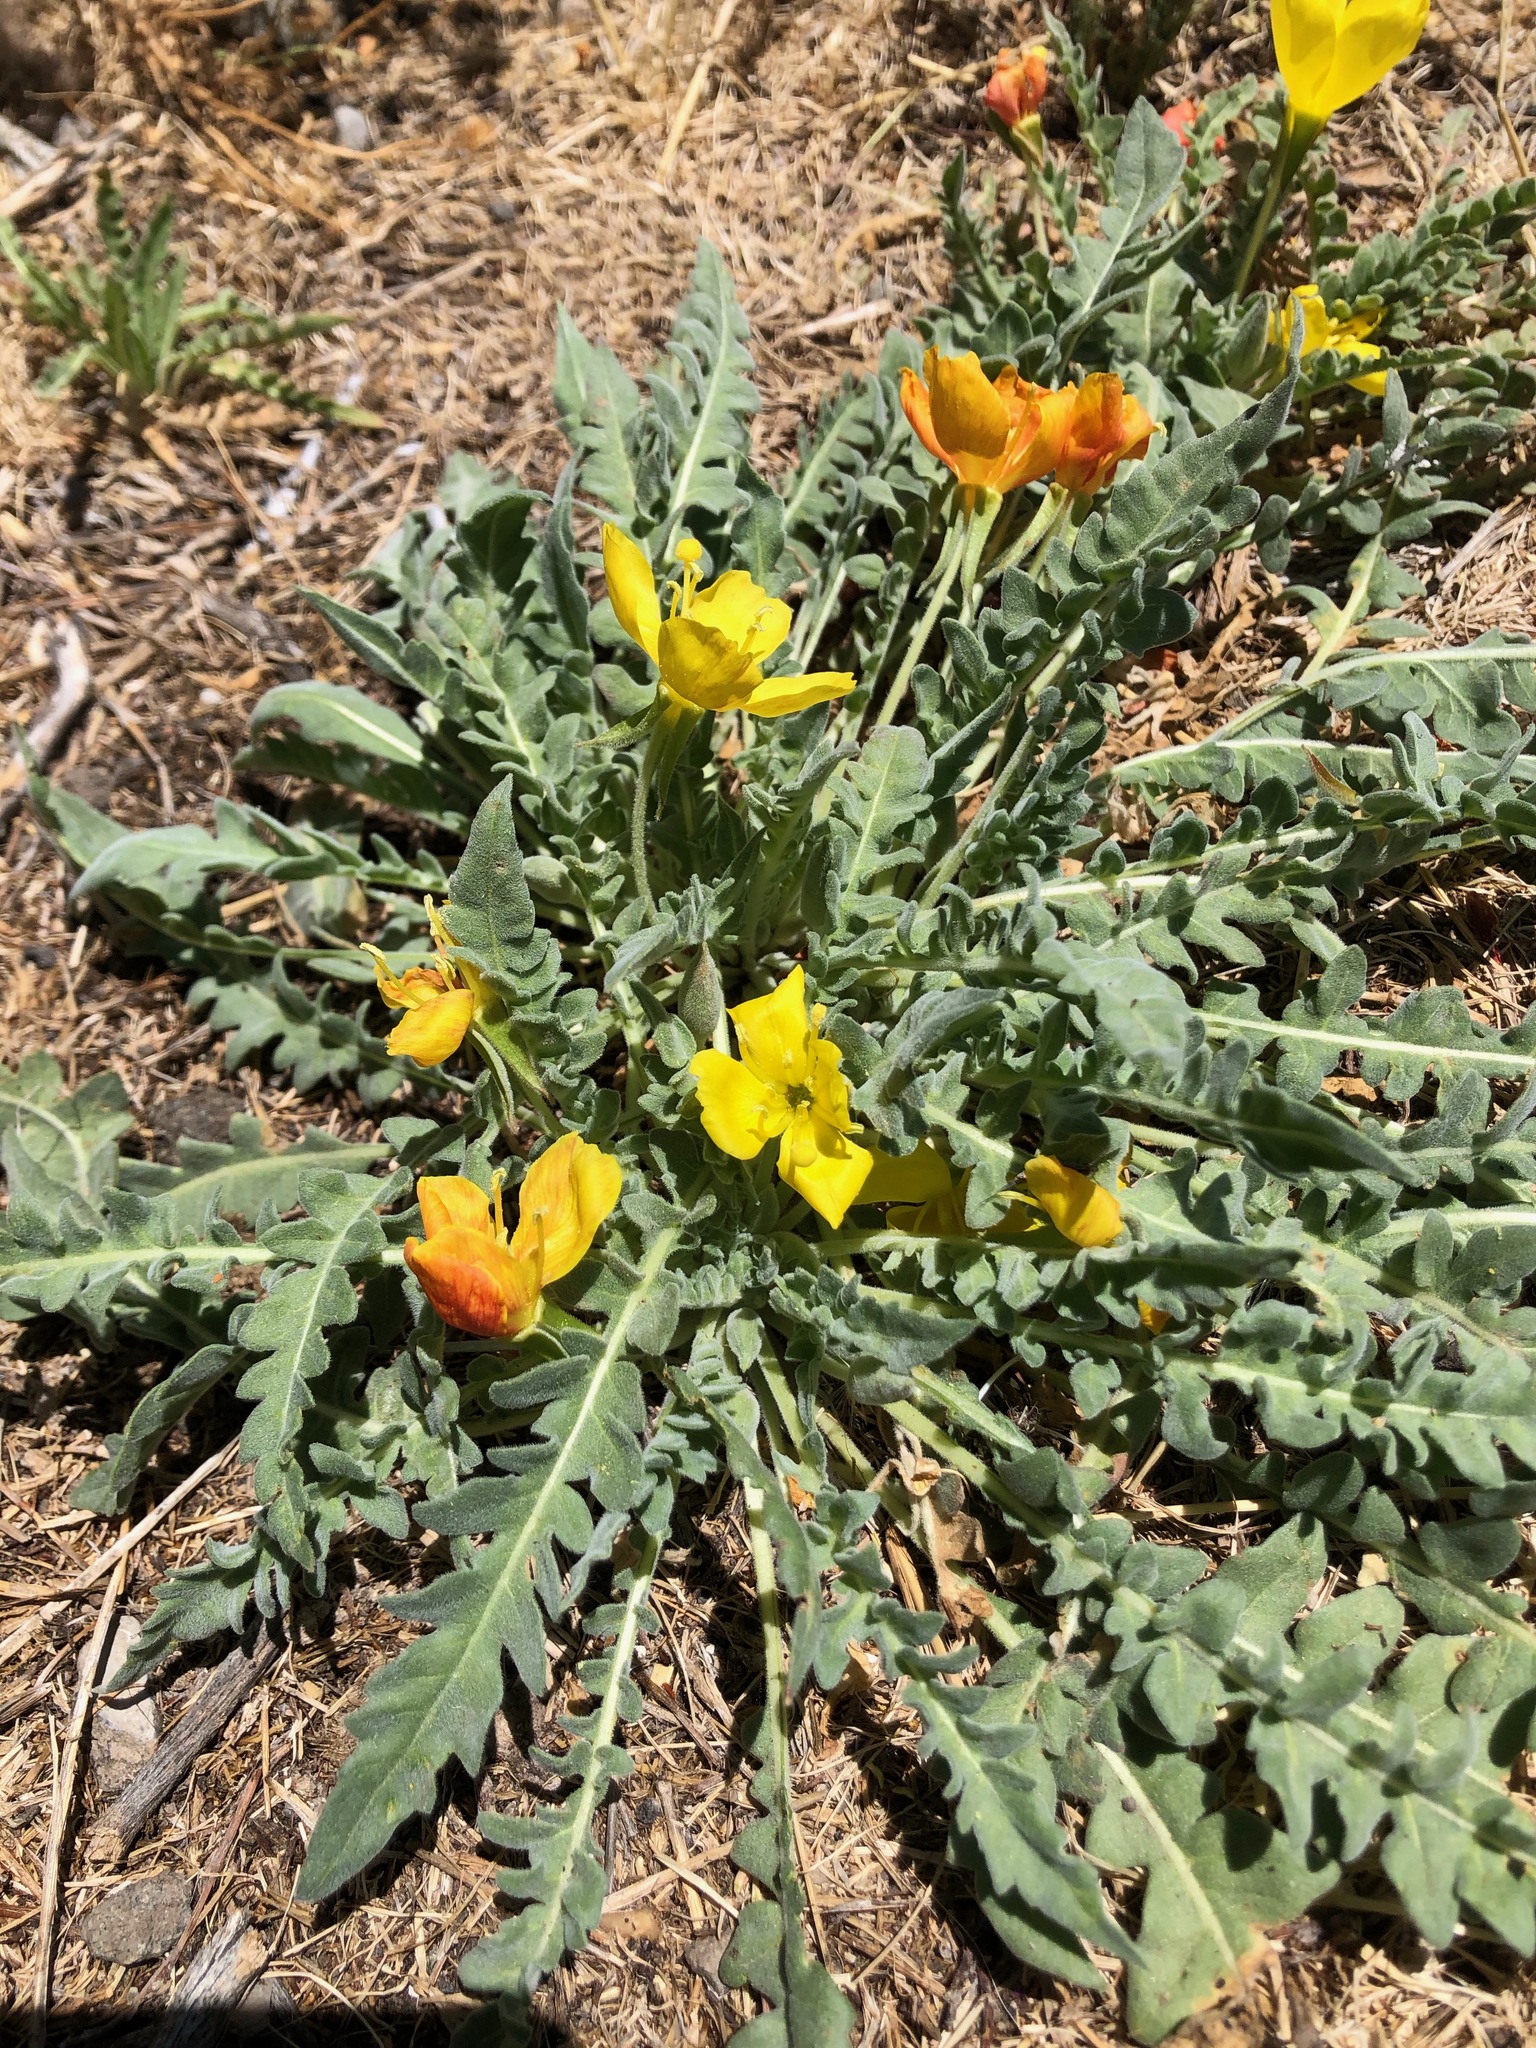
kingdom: Plantae
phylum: Tracheophyta
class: Magnoliopsida
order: Myrtales
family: Onagraceae
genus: Taraxia
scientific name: Taraxia tanacetifolia
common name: Tansyleaf evening primrose
